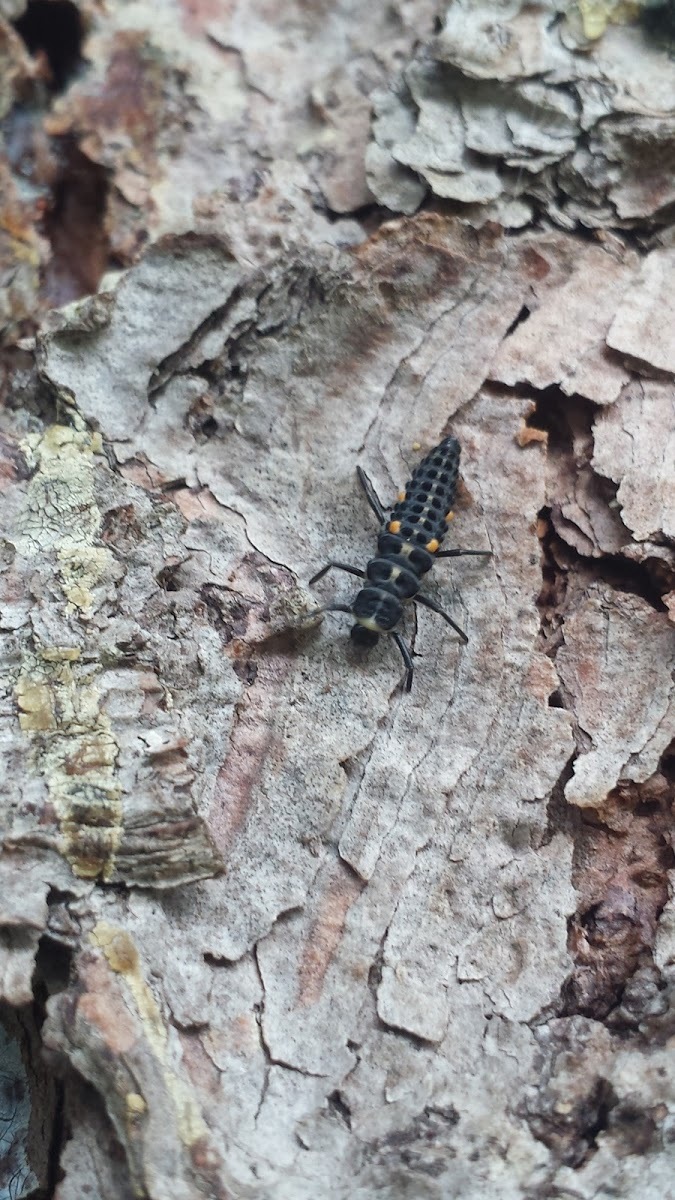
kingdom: Animalia
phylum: Arthropoda
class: Insecta
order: Coleoptera
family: Coccinellidae
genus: Myzia
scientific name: Myzia pullata
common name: Streaked lady beetle
